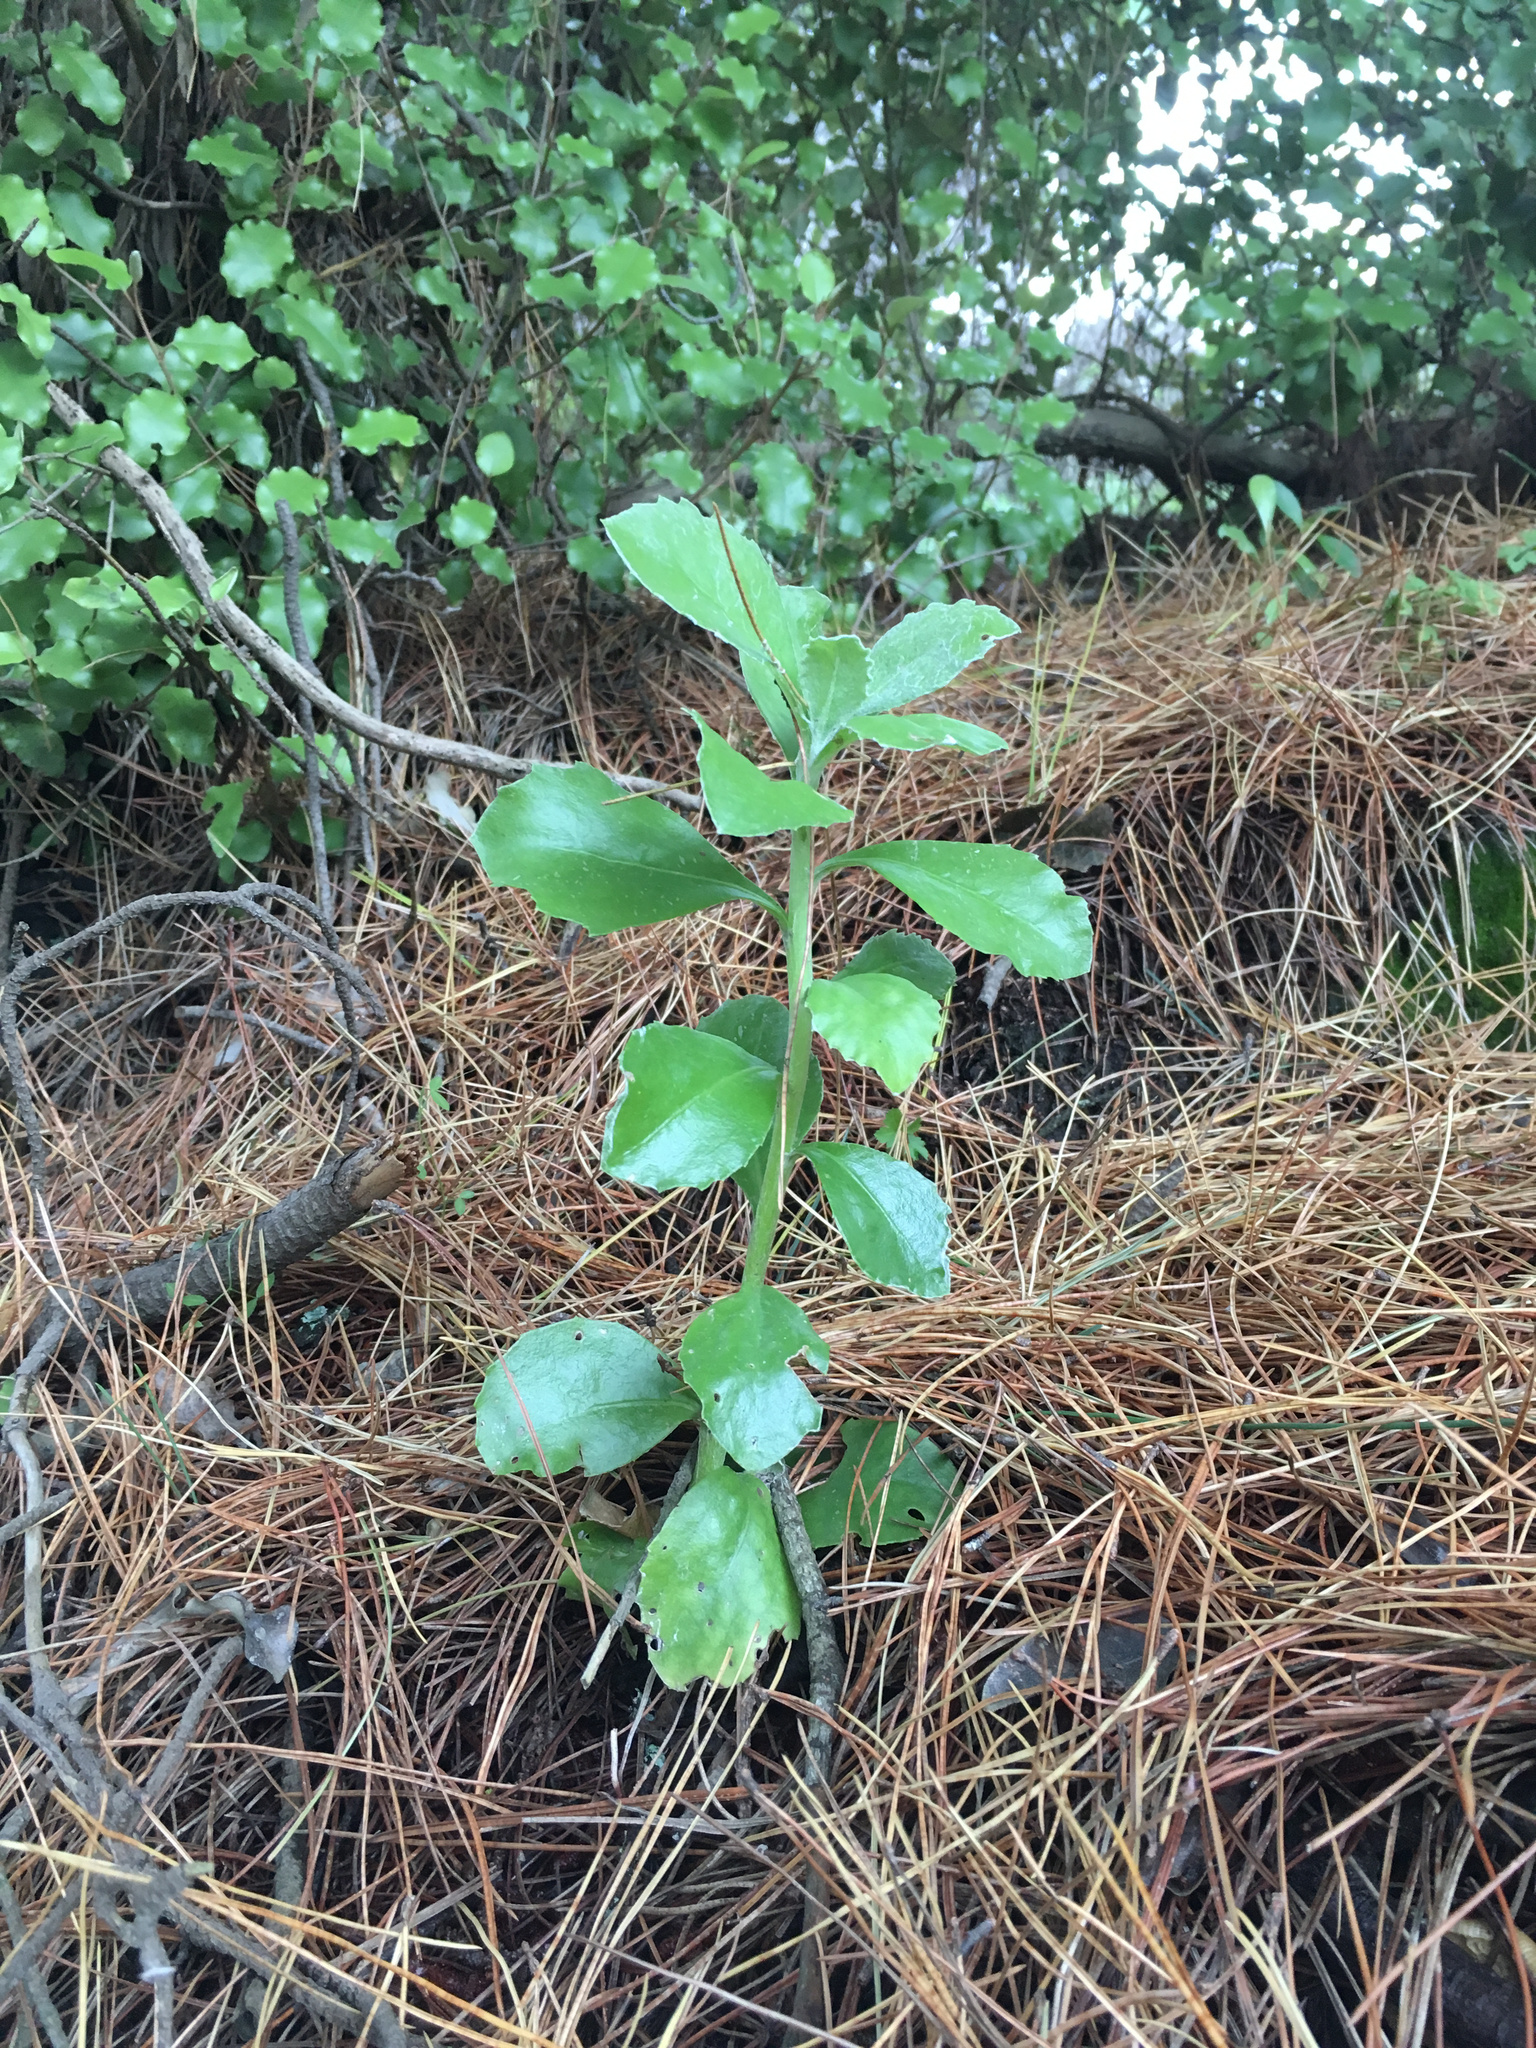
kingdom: Plantae
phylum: Tracheophyta
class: Magnoliopsida
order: Asterales
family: Asteraceae
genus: Osteospermum
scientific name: Osteospermum moniliferum
